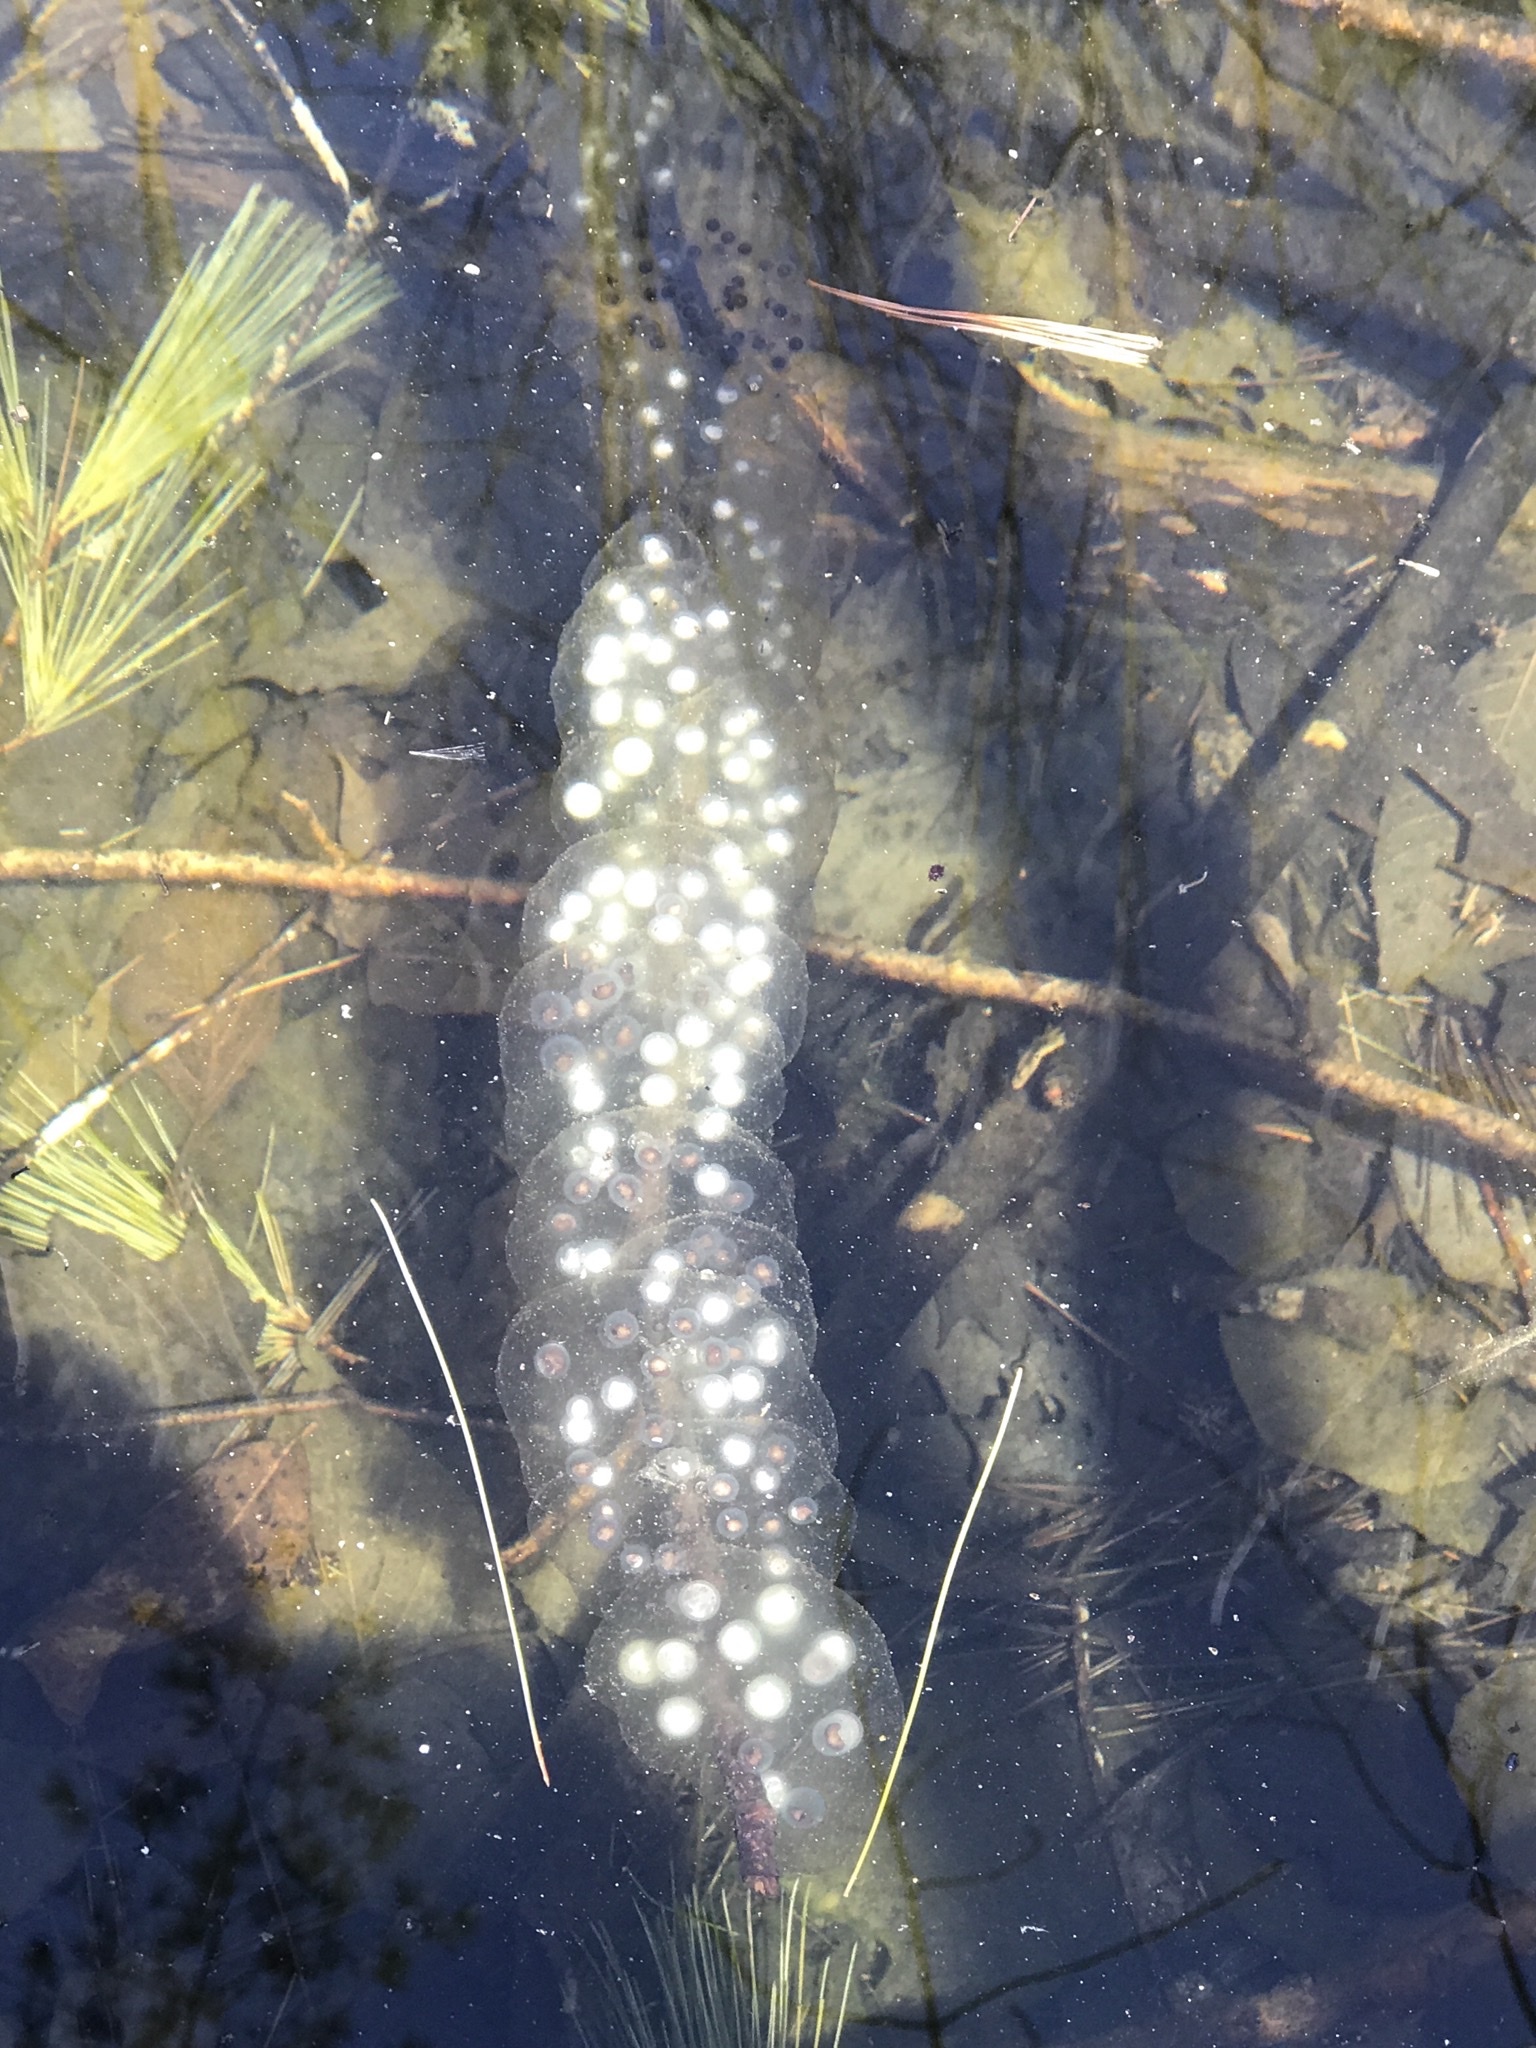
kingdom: Animalia
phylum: Chordata
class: Amphibia
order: Caudata
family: Ambystomatidae
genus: Ambystoma
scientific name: Ambystoma unisexual
